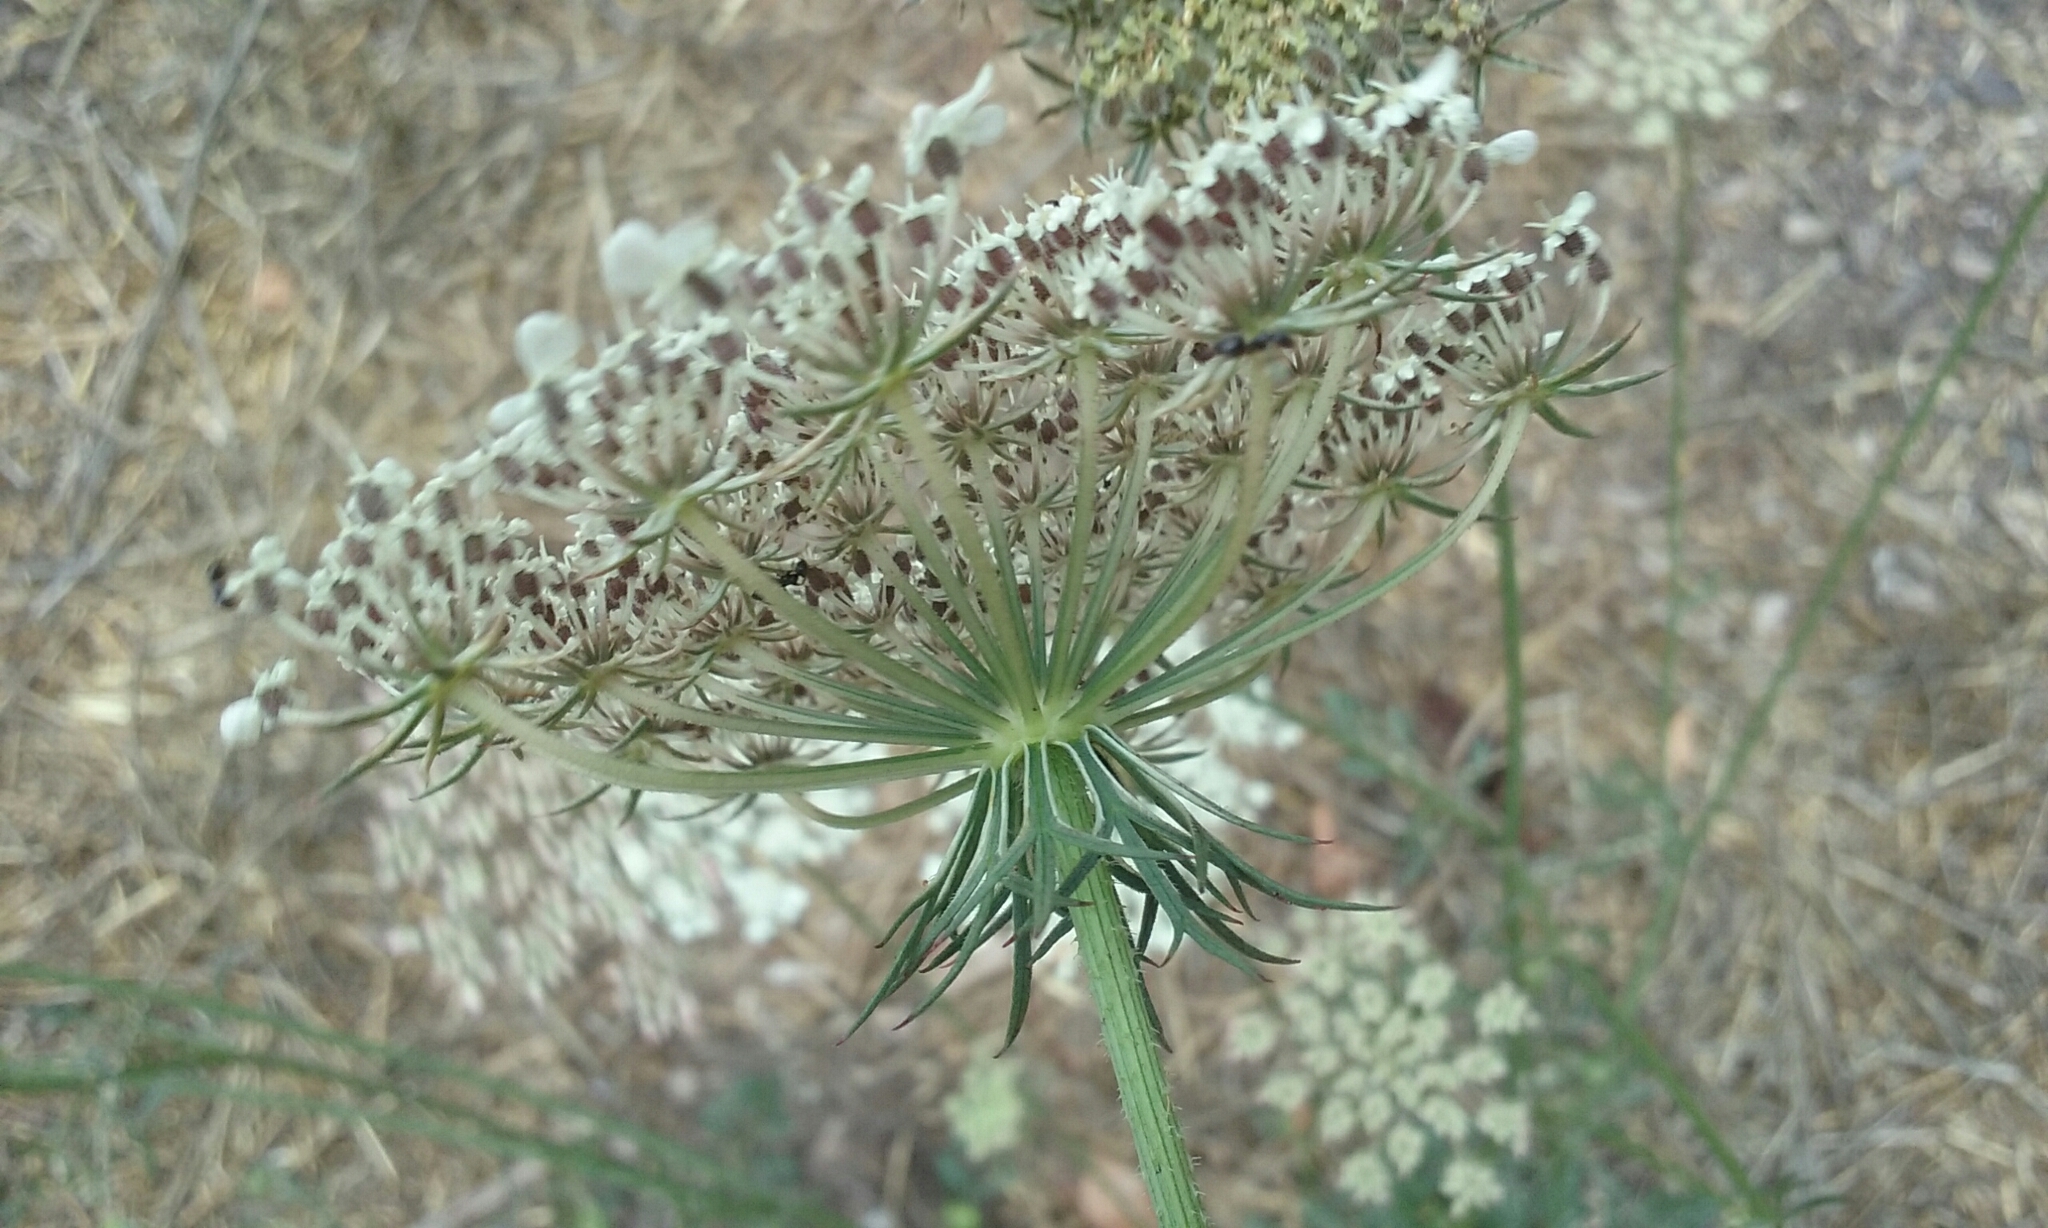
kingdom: Plantae
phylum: Tracheophyta
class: Magnoliopsida
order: Apiales
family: Apiaceae
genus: Daucus
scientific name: Daucus carota
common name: Wild carrot
